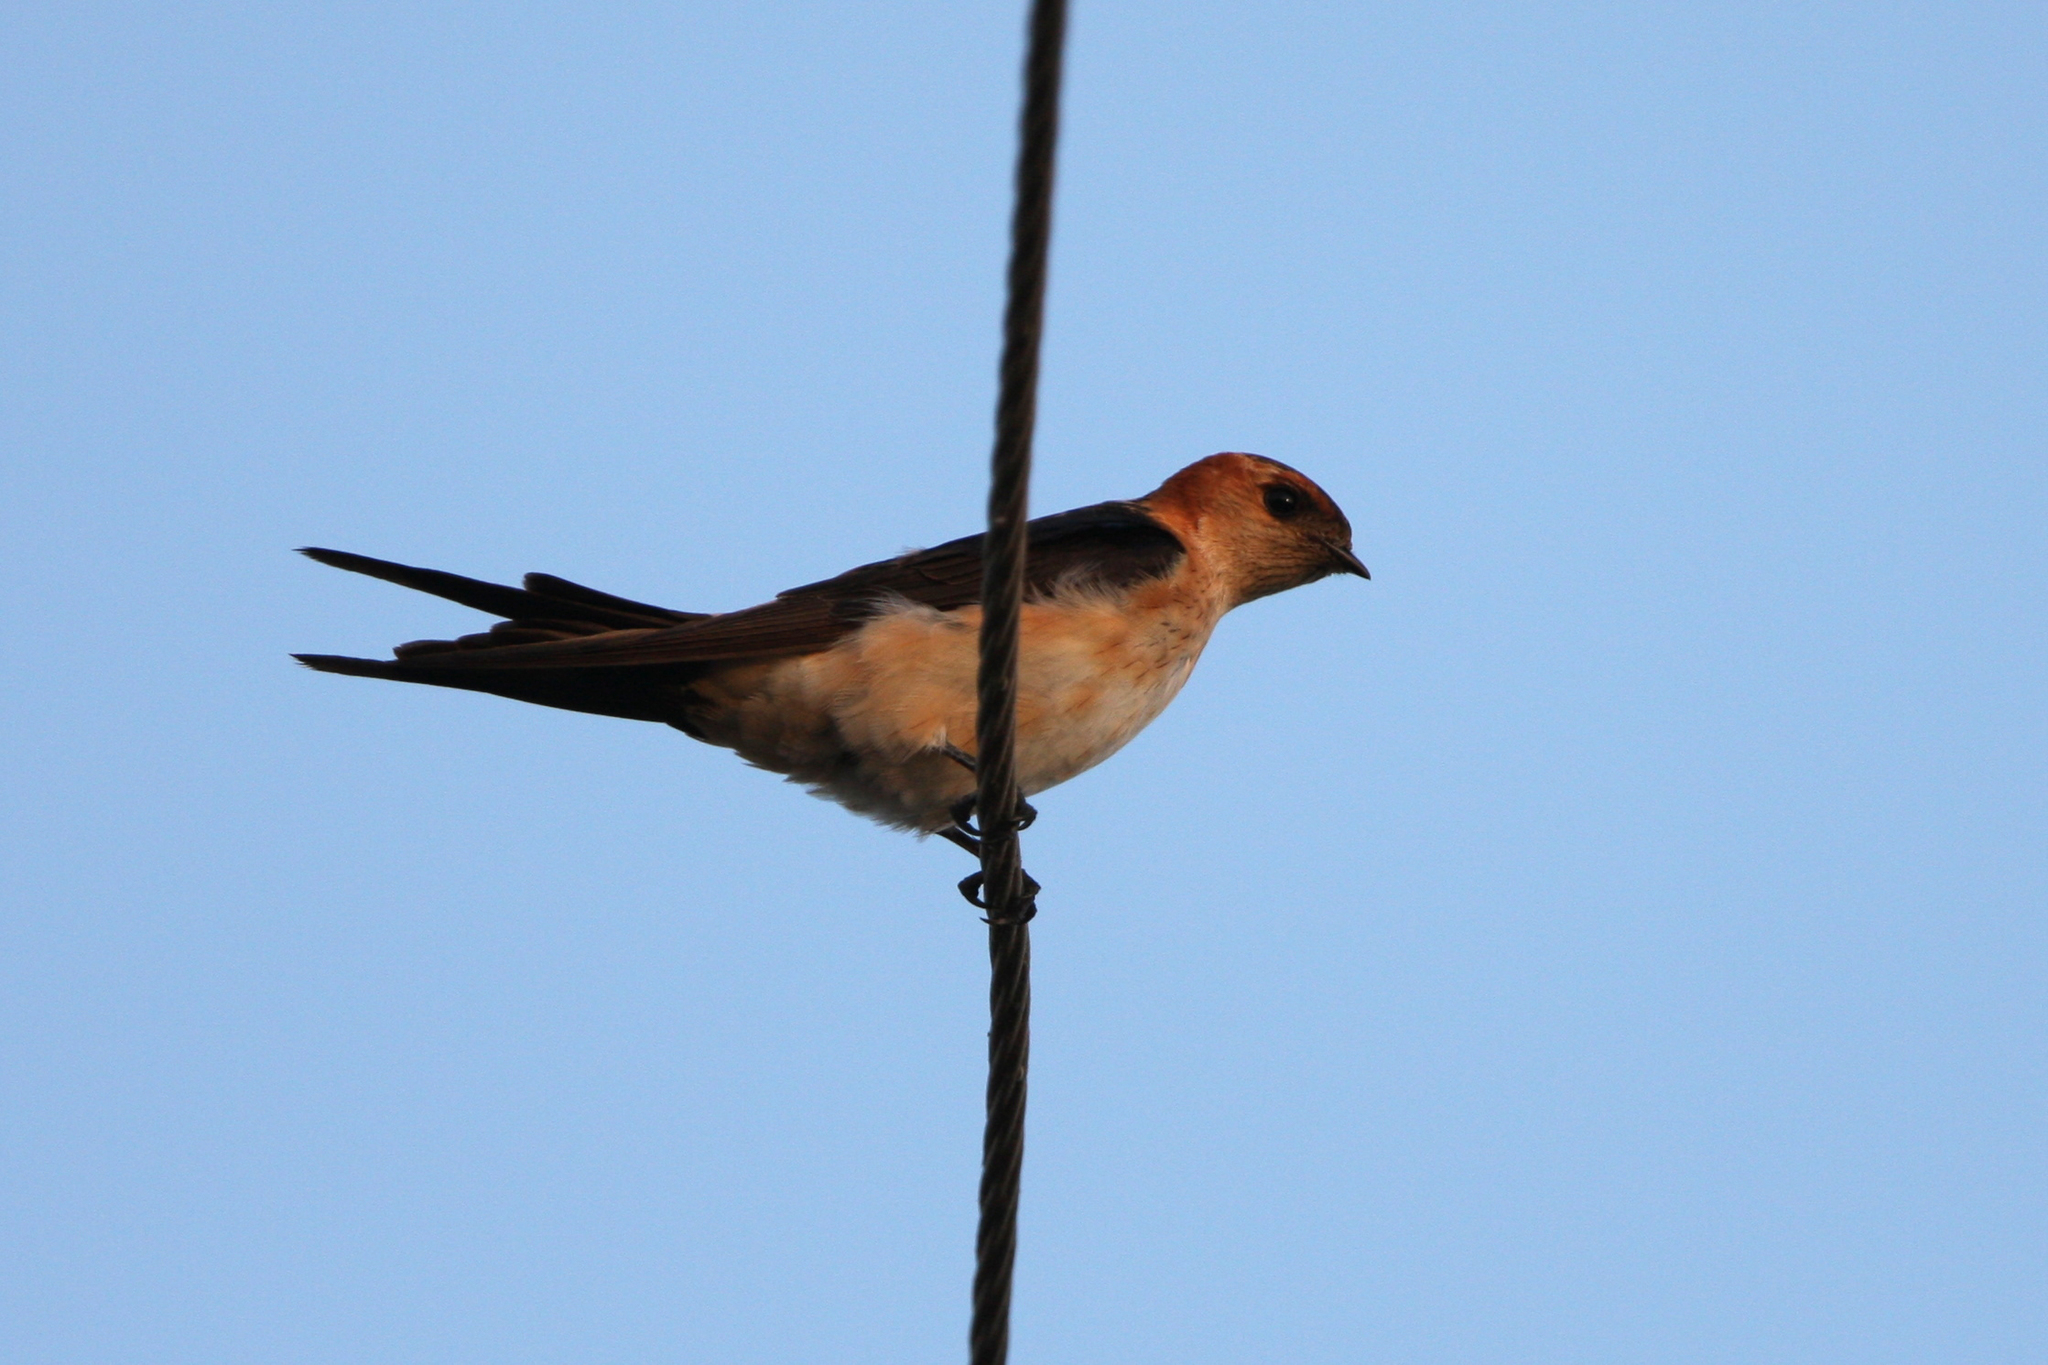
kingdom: Animalia
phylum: Chordata
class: Aves
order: Passeriformes
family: Hirundinidae
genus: Cecropis
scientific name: Cecropis daurica
